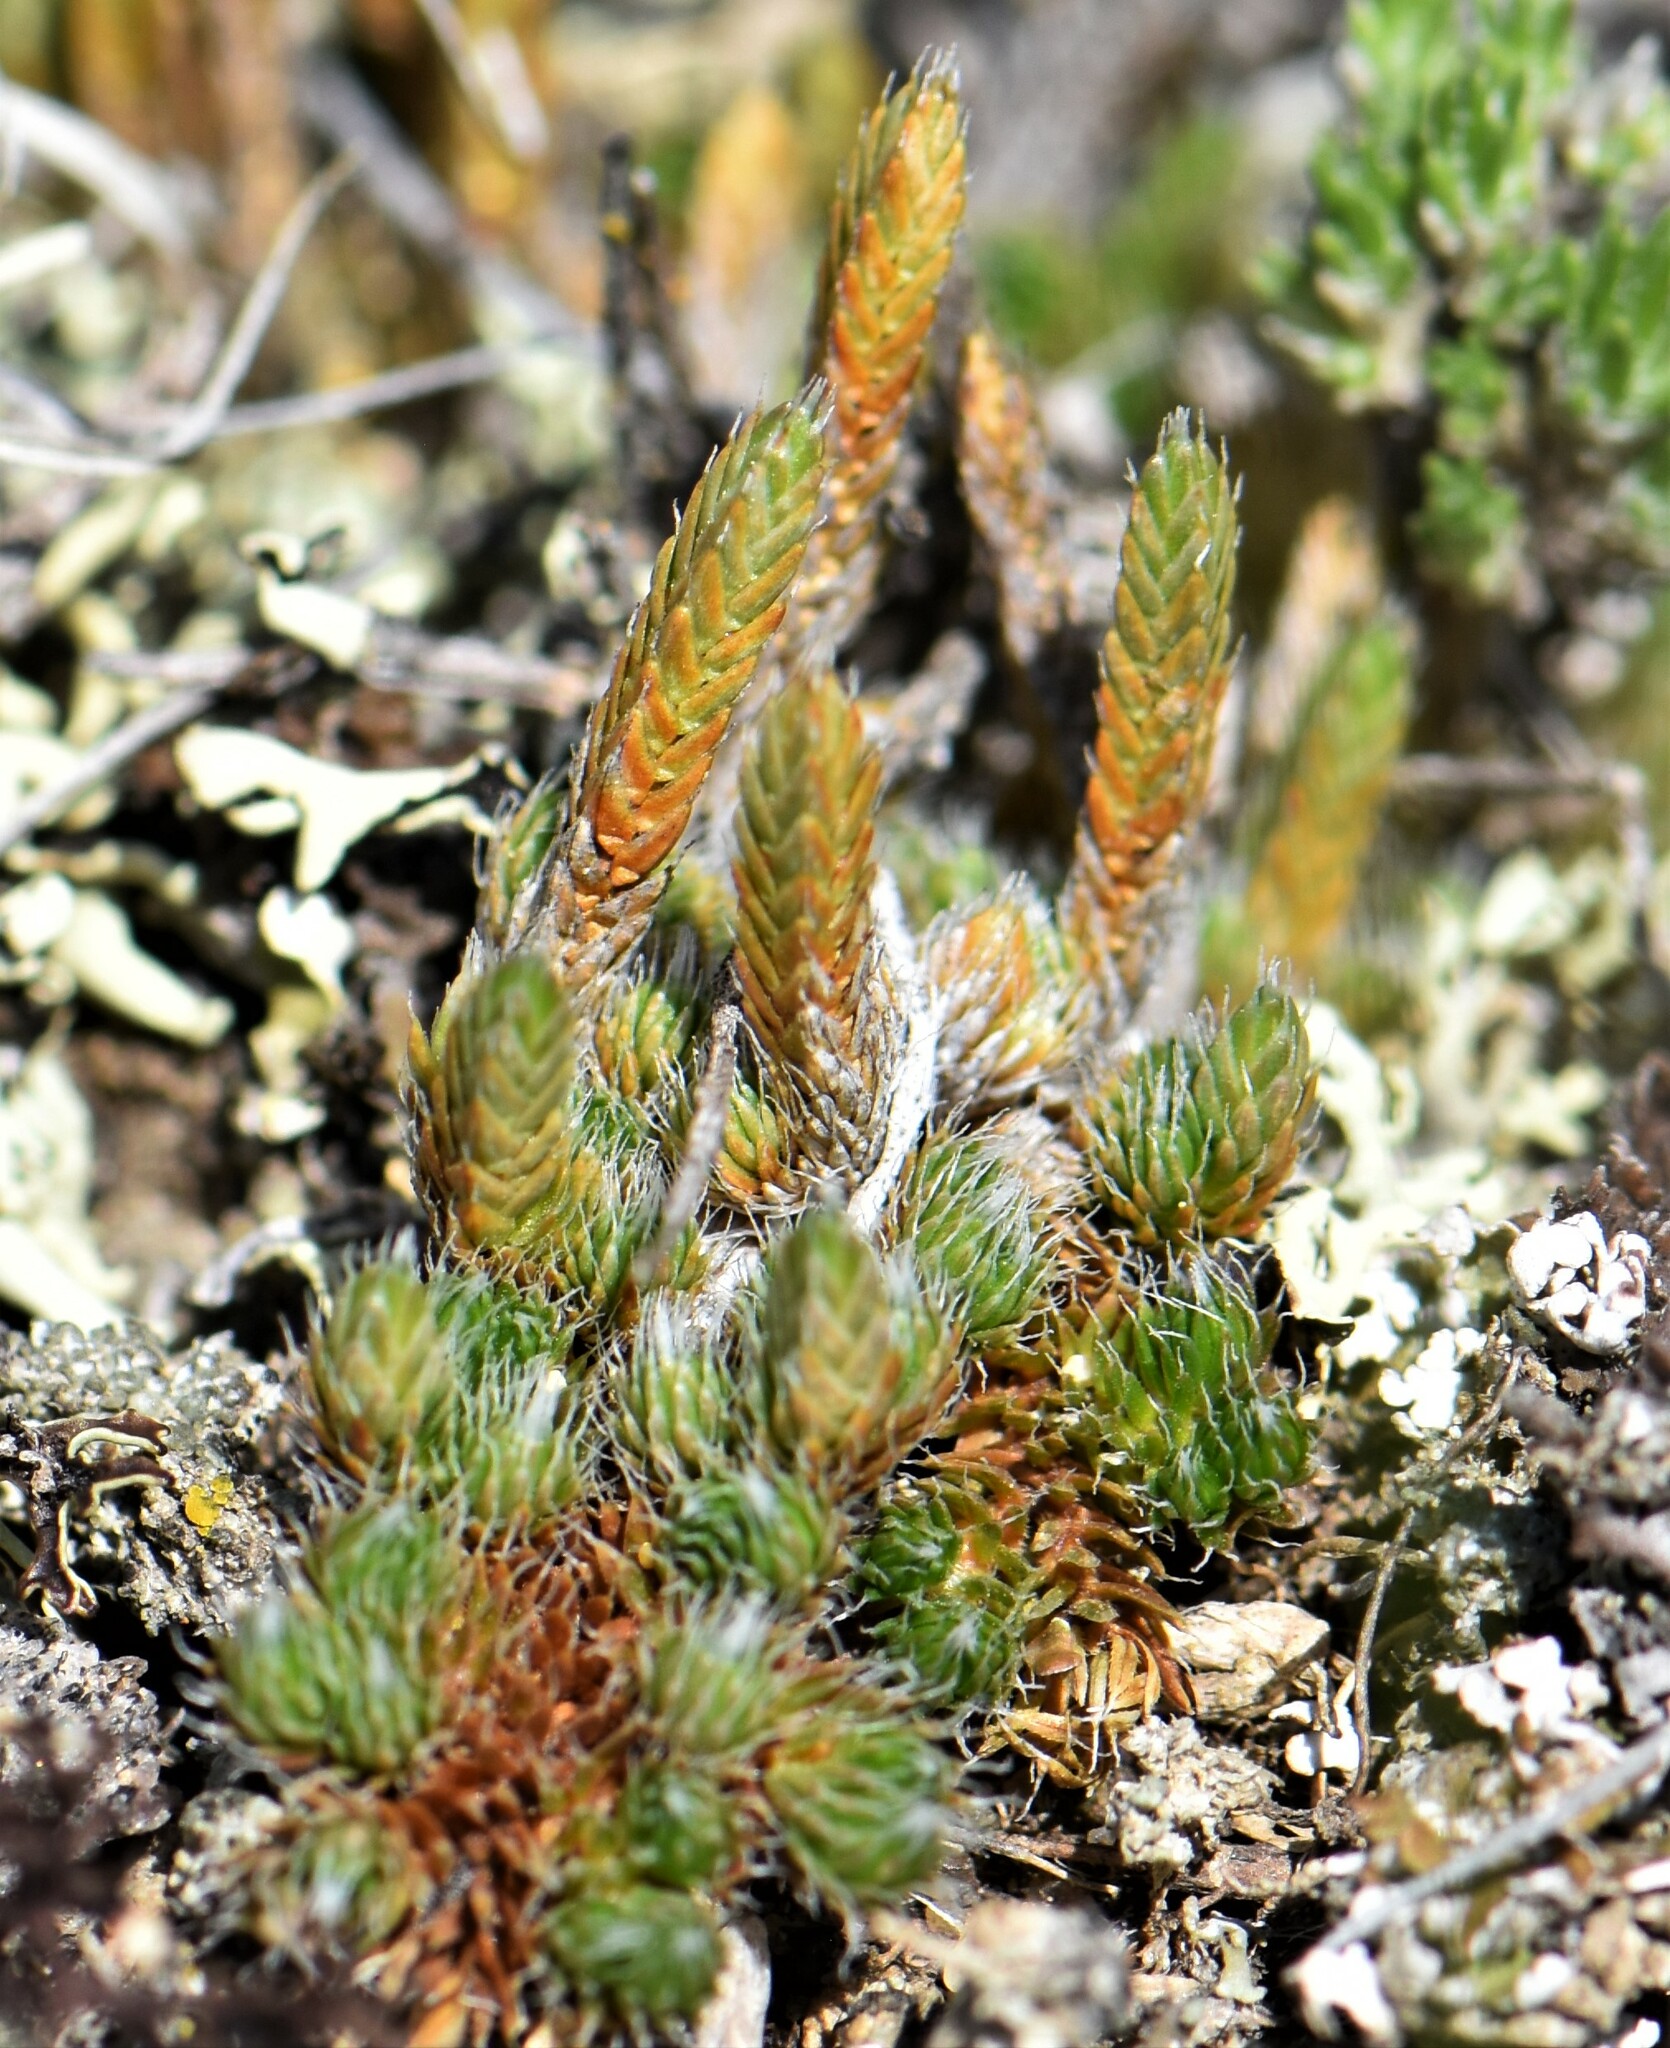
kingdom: Plantae
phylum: Tracheophyta
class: Lycopodiopsida
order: Selaginellales
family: Selaginellaceae
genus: Selaginella
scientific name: Selaginella densa
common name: Mountain spike-moss
